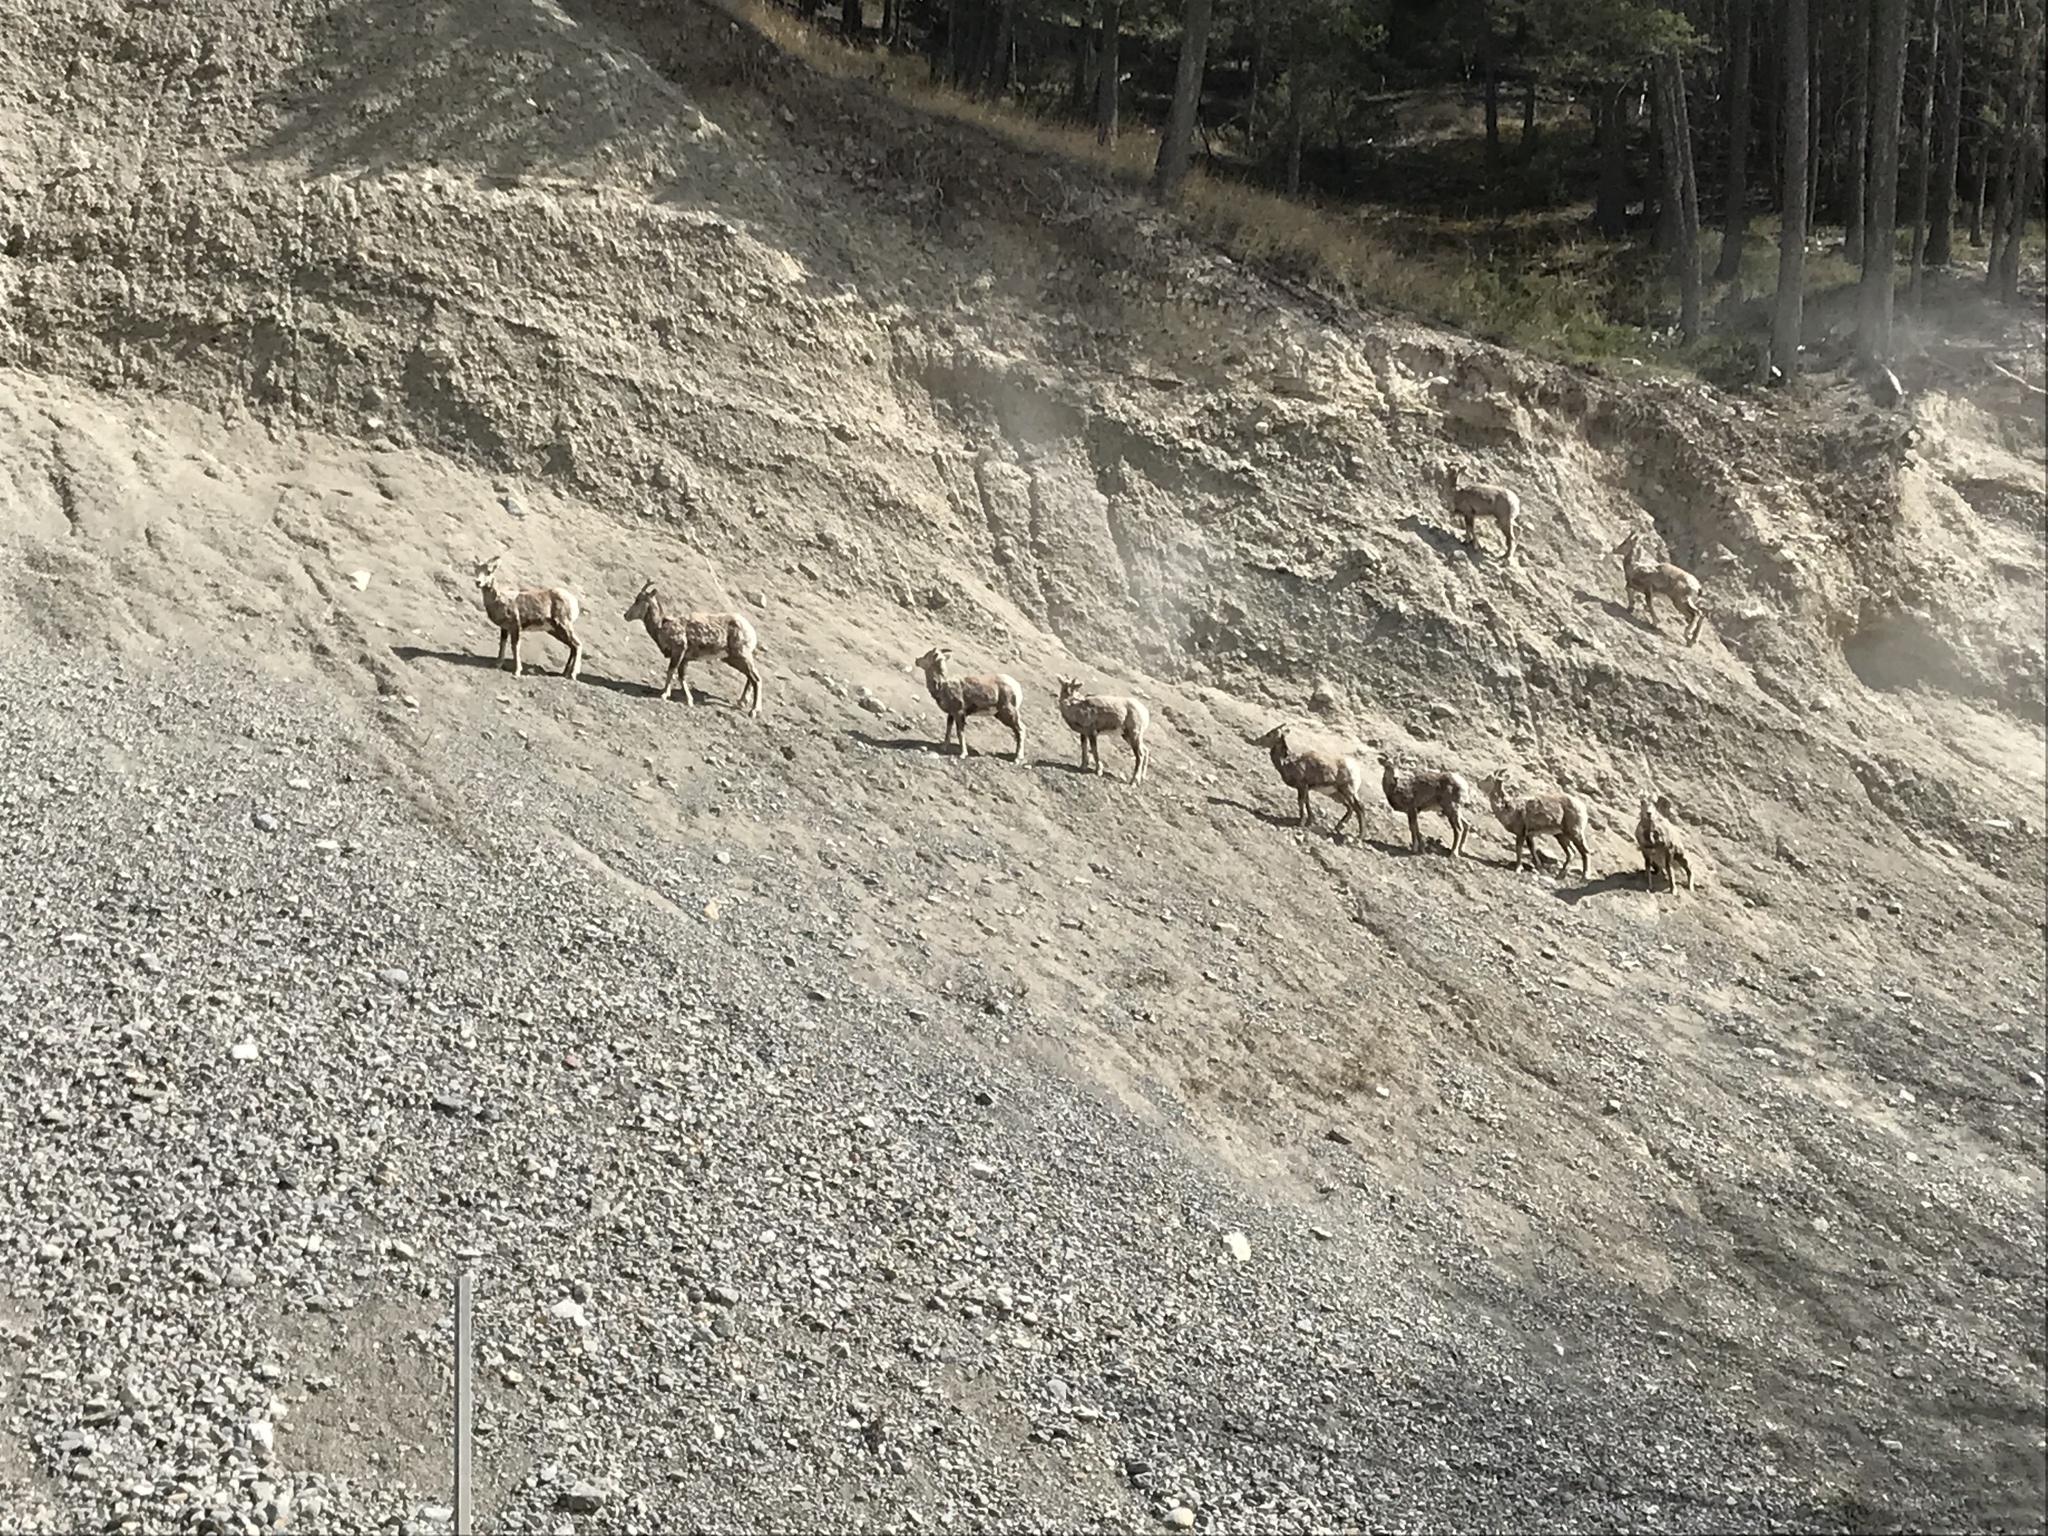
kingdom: Animalia
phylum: Chordata
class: Mammalia
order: Artiodactyla
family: Bovidae
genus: Ovis
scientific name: Ovis canadensis
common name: Bighorn sheep
